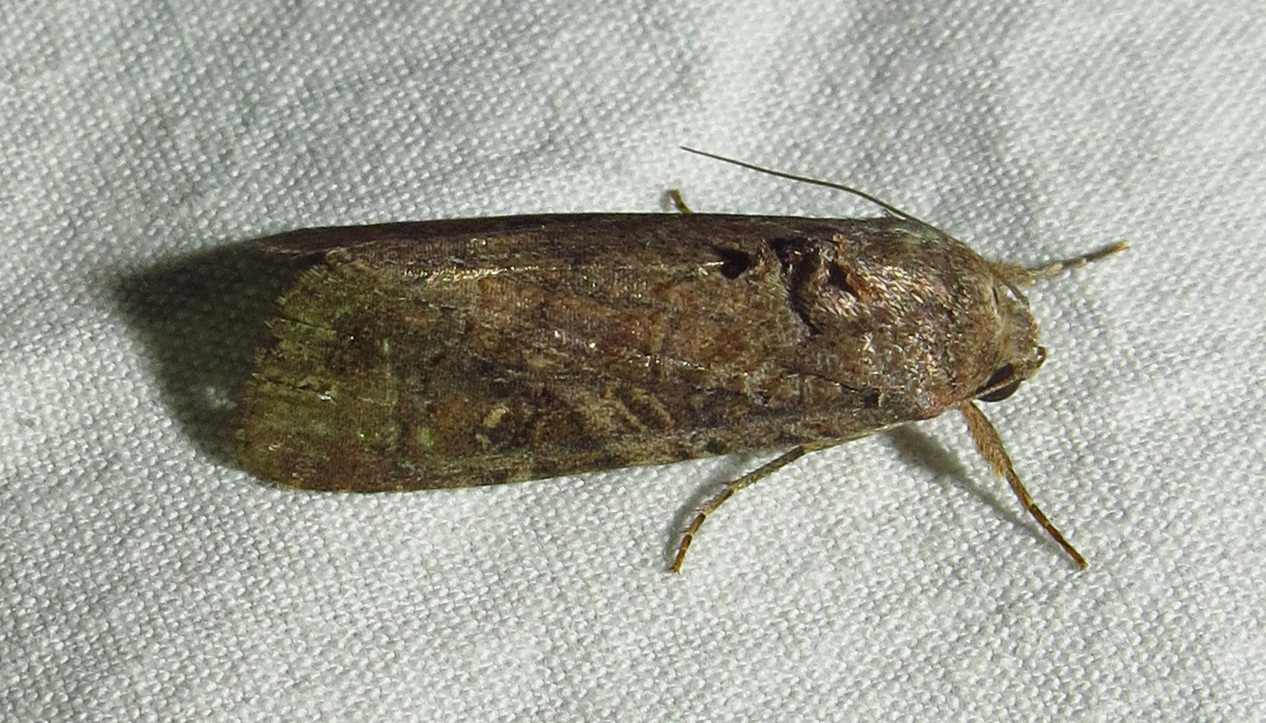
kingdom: Animalia
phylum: Arthropoda
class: Insecta
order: Lepidoptera
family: Noctuidae
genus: Spodoptera
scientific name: Spodoptera frugiperda
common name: Fall armyworm
